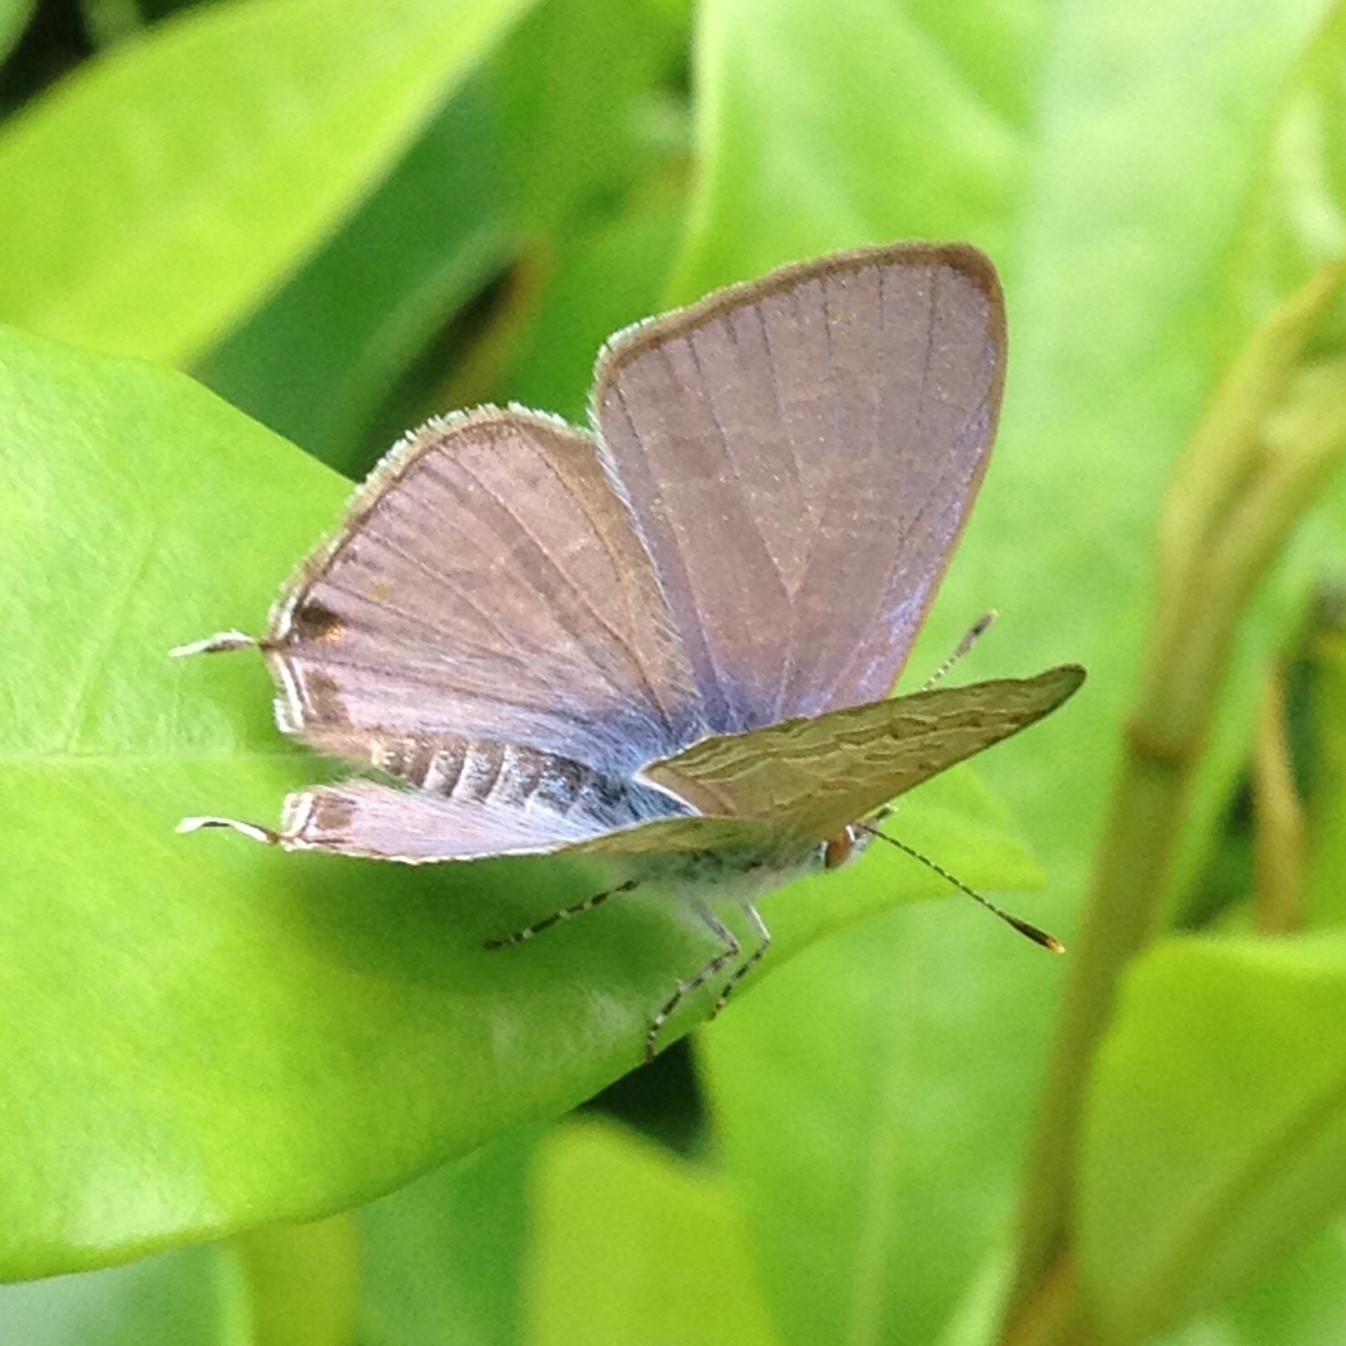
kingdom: Animalia
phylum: Arthropoda
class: Insecta
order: Lepidoptera
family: Lycaenidae
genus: Catopyrops
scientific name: Catopyrops florinda
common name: Speckled line-blue
